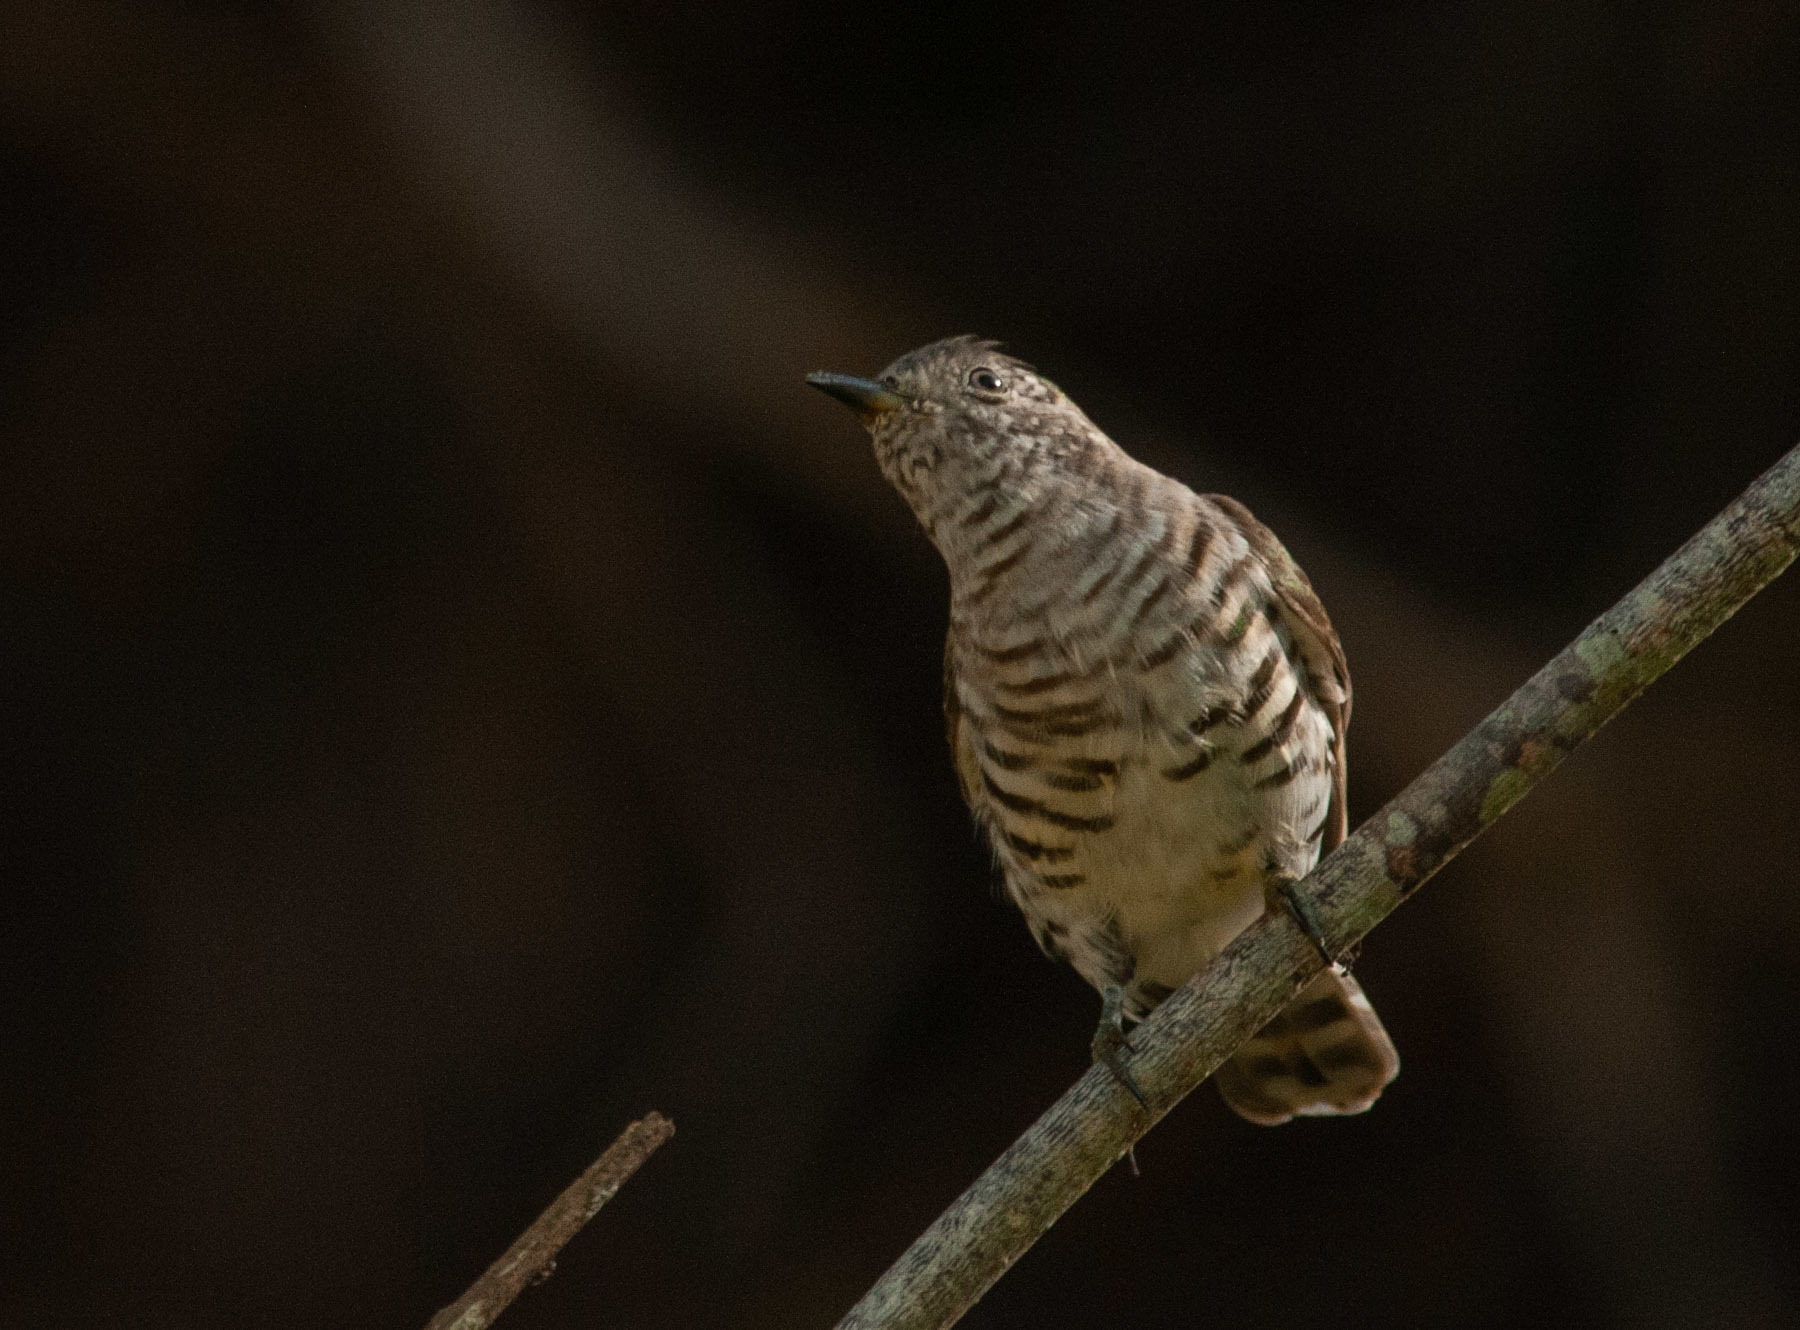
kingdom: Animalia
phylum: Chordata
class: Aves
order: Cuculiformes
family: Cuculidae
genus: Chrysococcyx
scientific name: Chrysococcyx lucidus
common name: Shining bronze cuckoo
